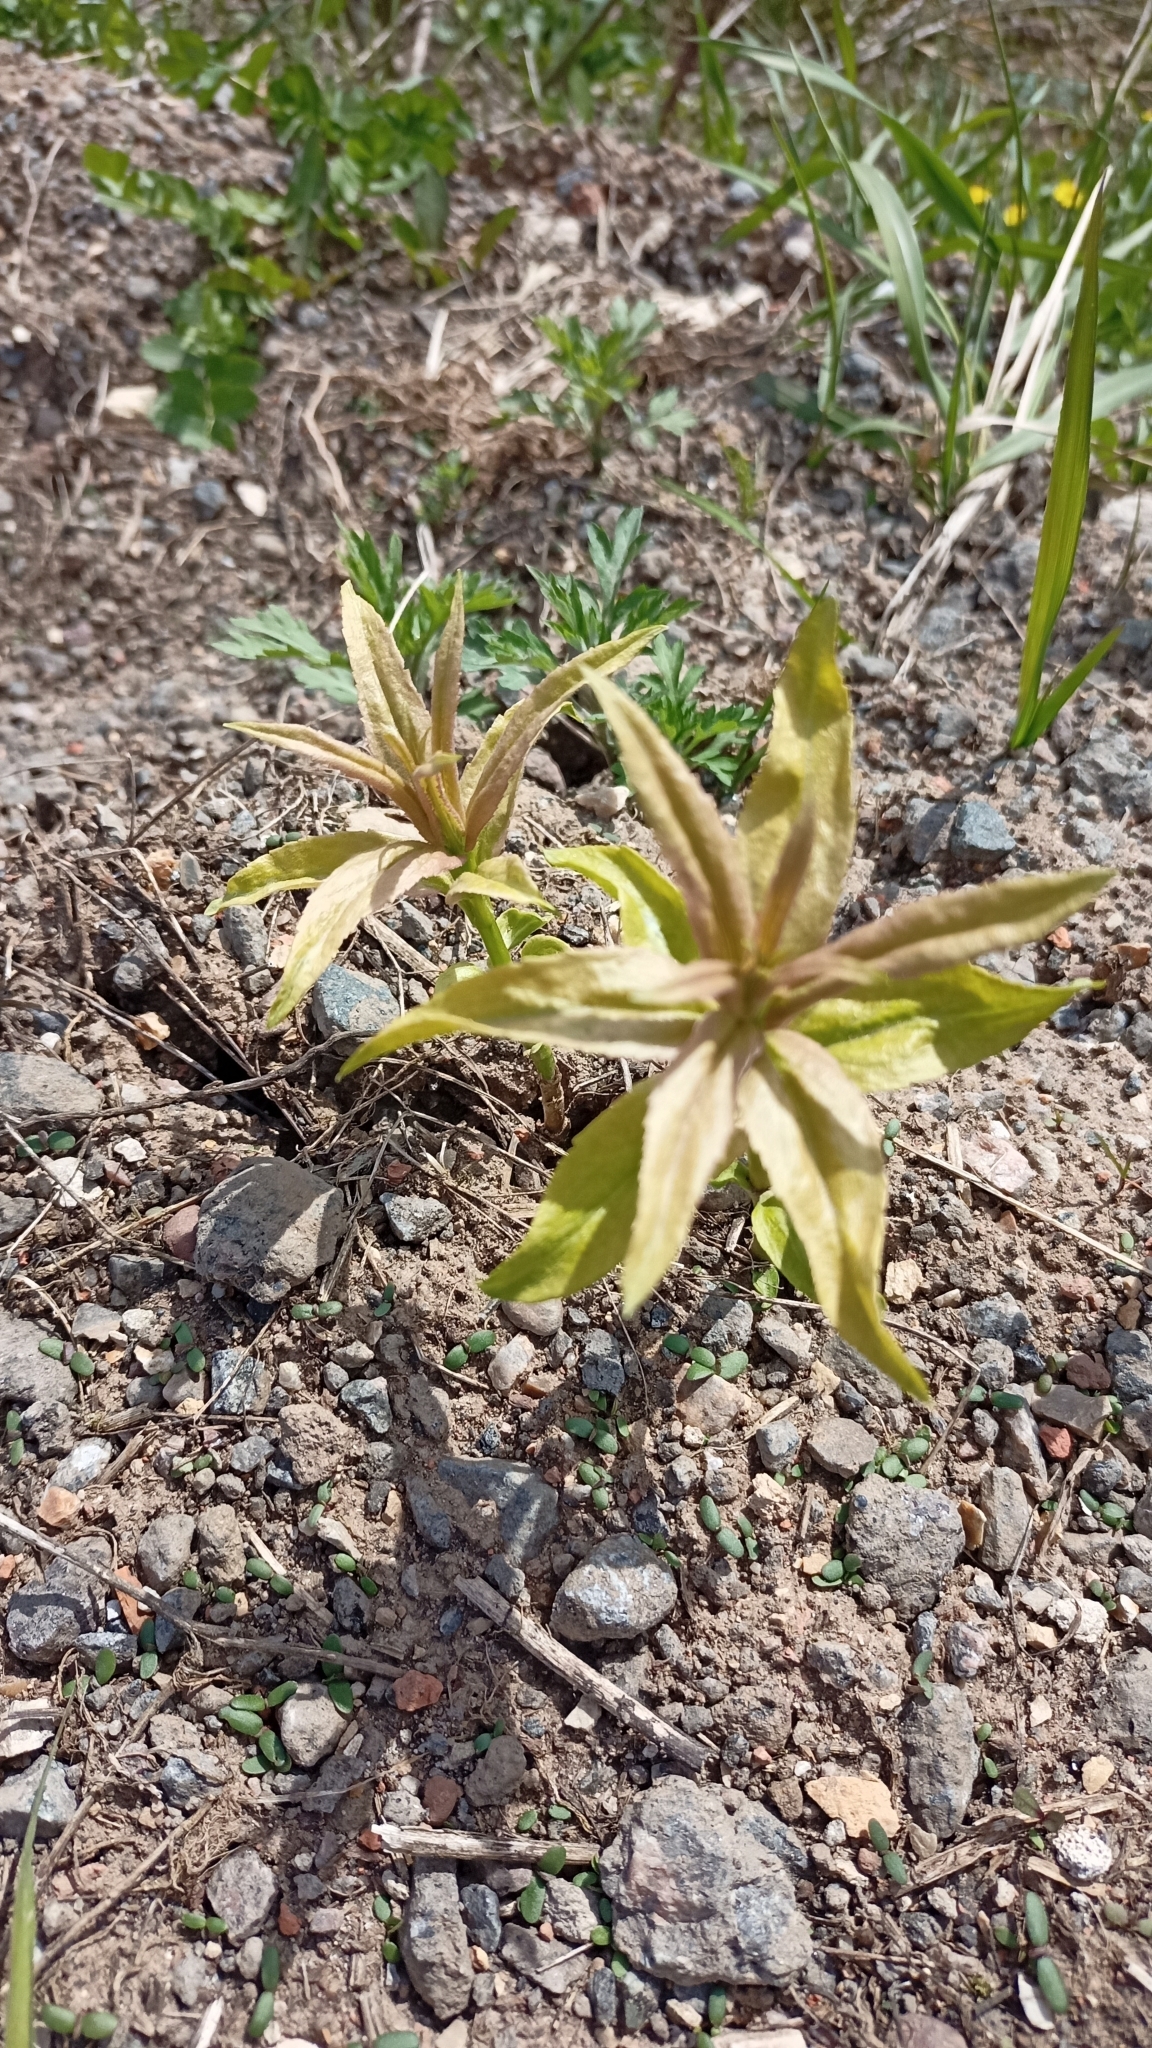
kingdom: Plantae
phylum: Tracheophyta
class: Magnoliopsida
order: Lamiales
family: Plantaginaceae
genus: Veronica
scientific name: Veronica longifolia
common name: Garden speedwell
